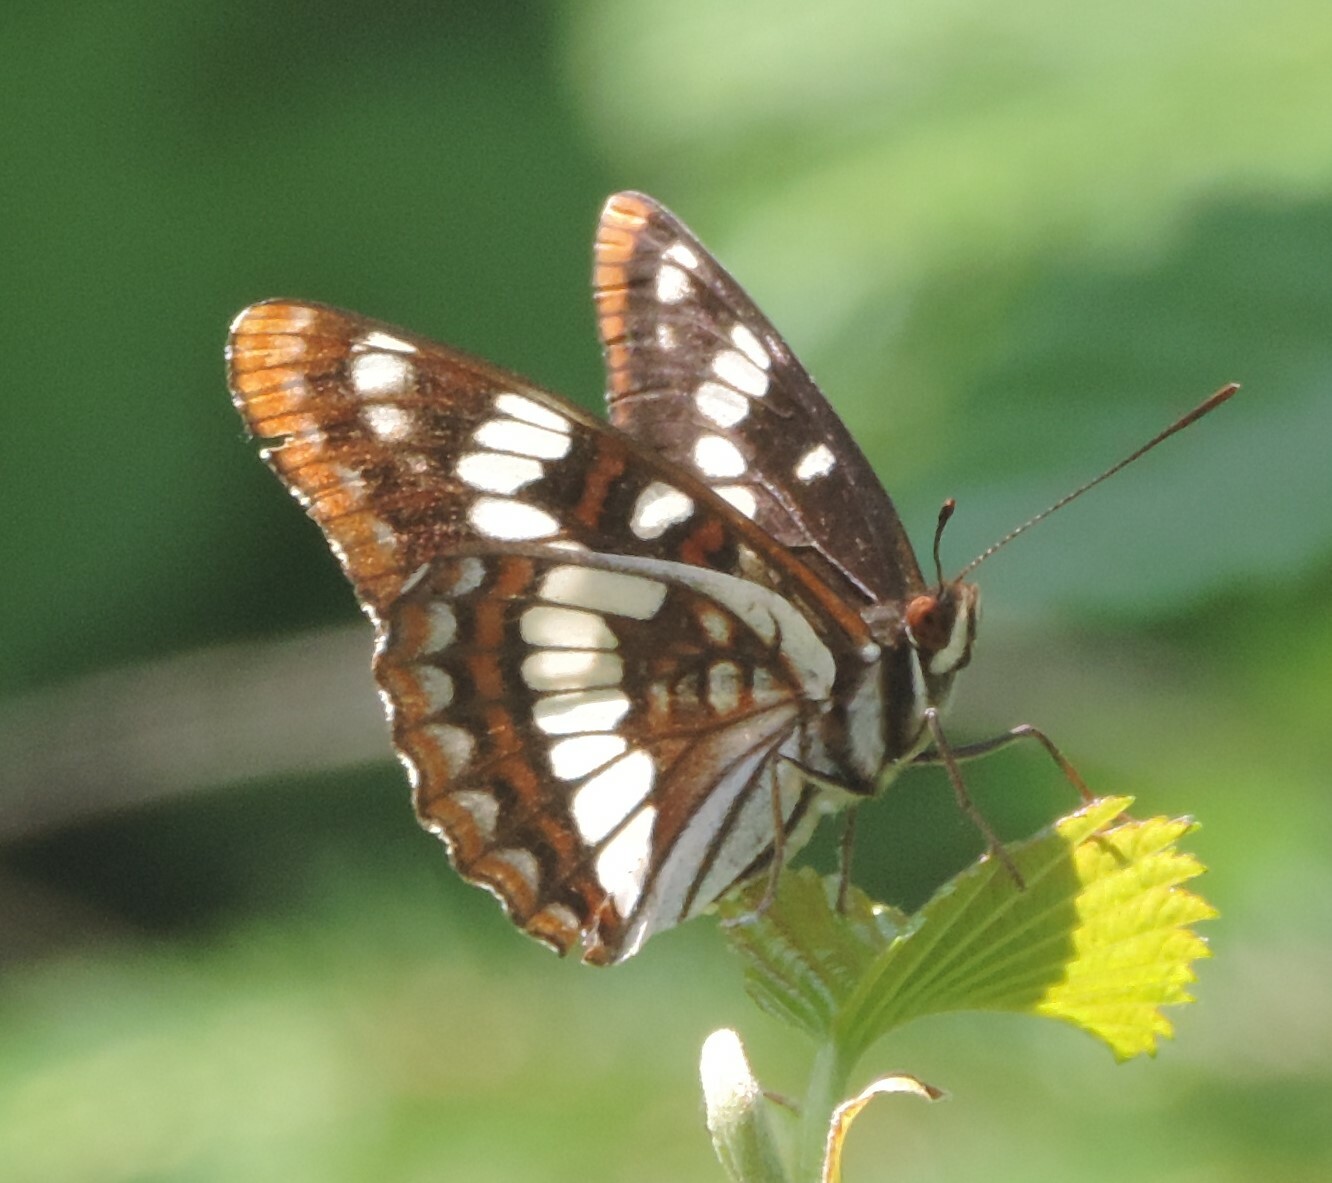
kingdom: Animalia
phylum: Arthropoda
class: Insecta
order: Lepidoptera
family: Nymphalidae
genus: Limenitis
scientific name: Limenitis lorquini
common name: Lorquin's admiral
